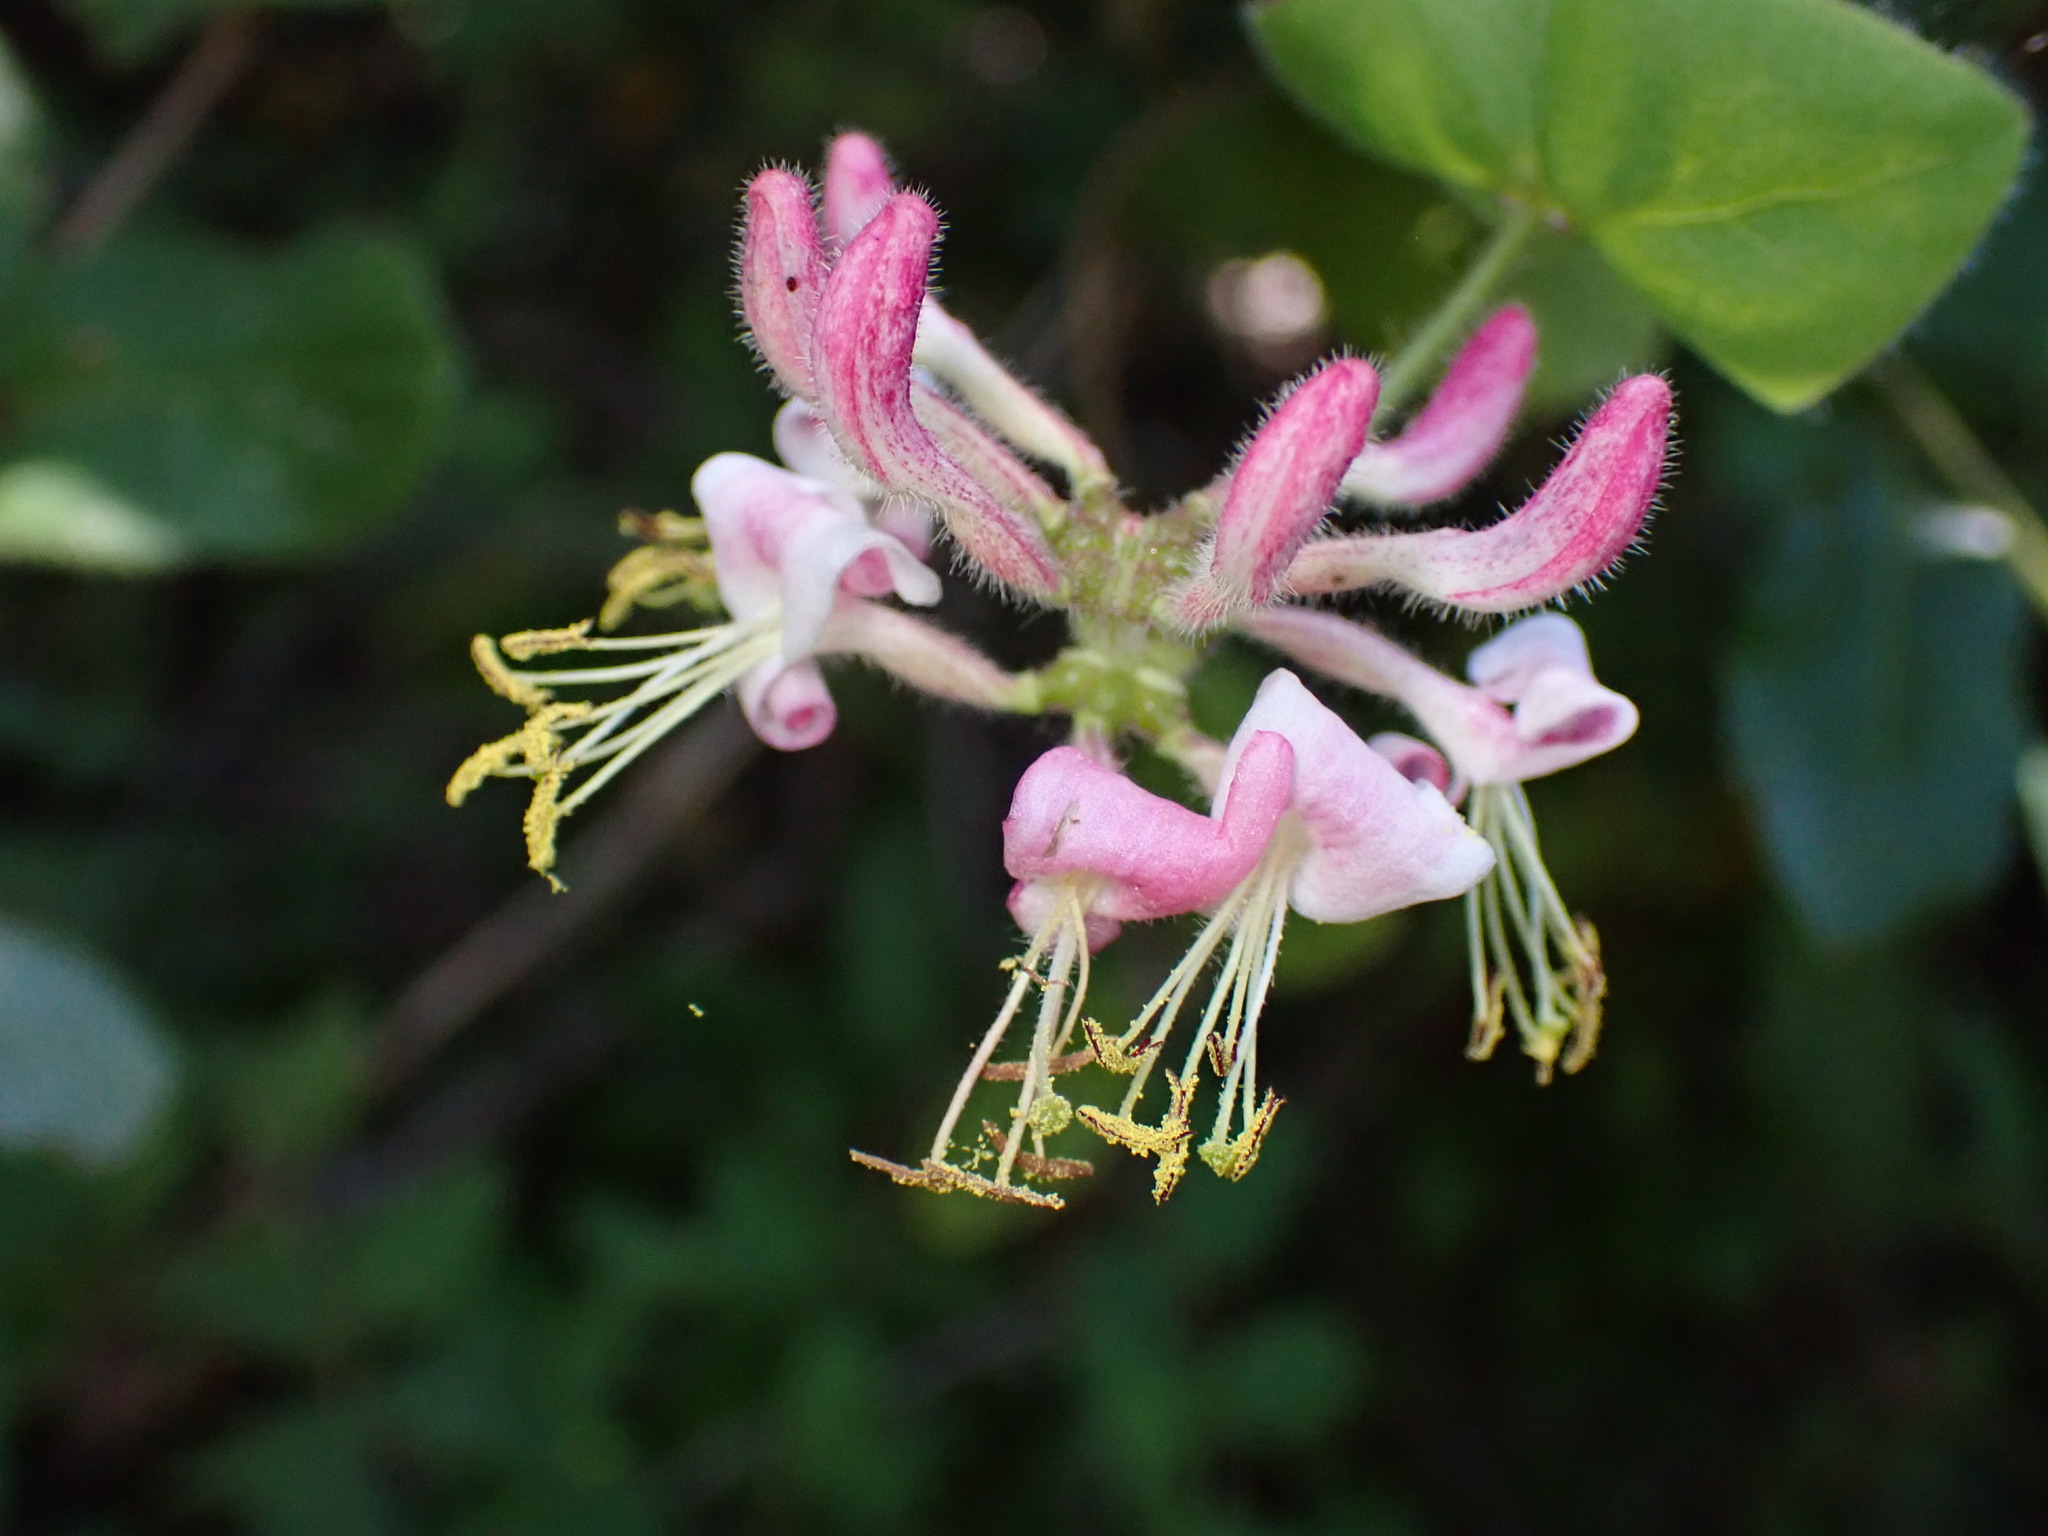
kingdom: Plantae
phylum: Tracheophyta
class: Magnoliopsida
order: Dipsacales
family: Caprifoliaceae
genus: Lonicera
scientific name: Lonicera hispidula
